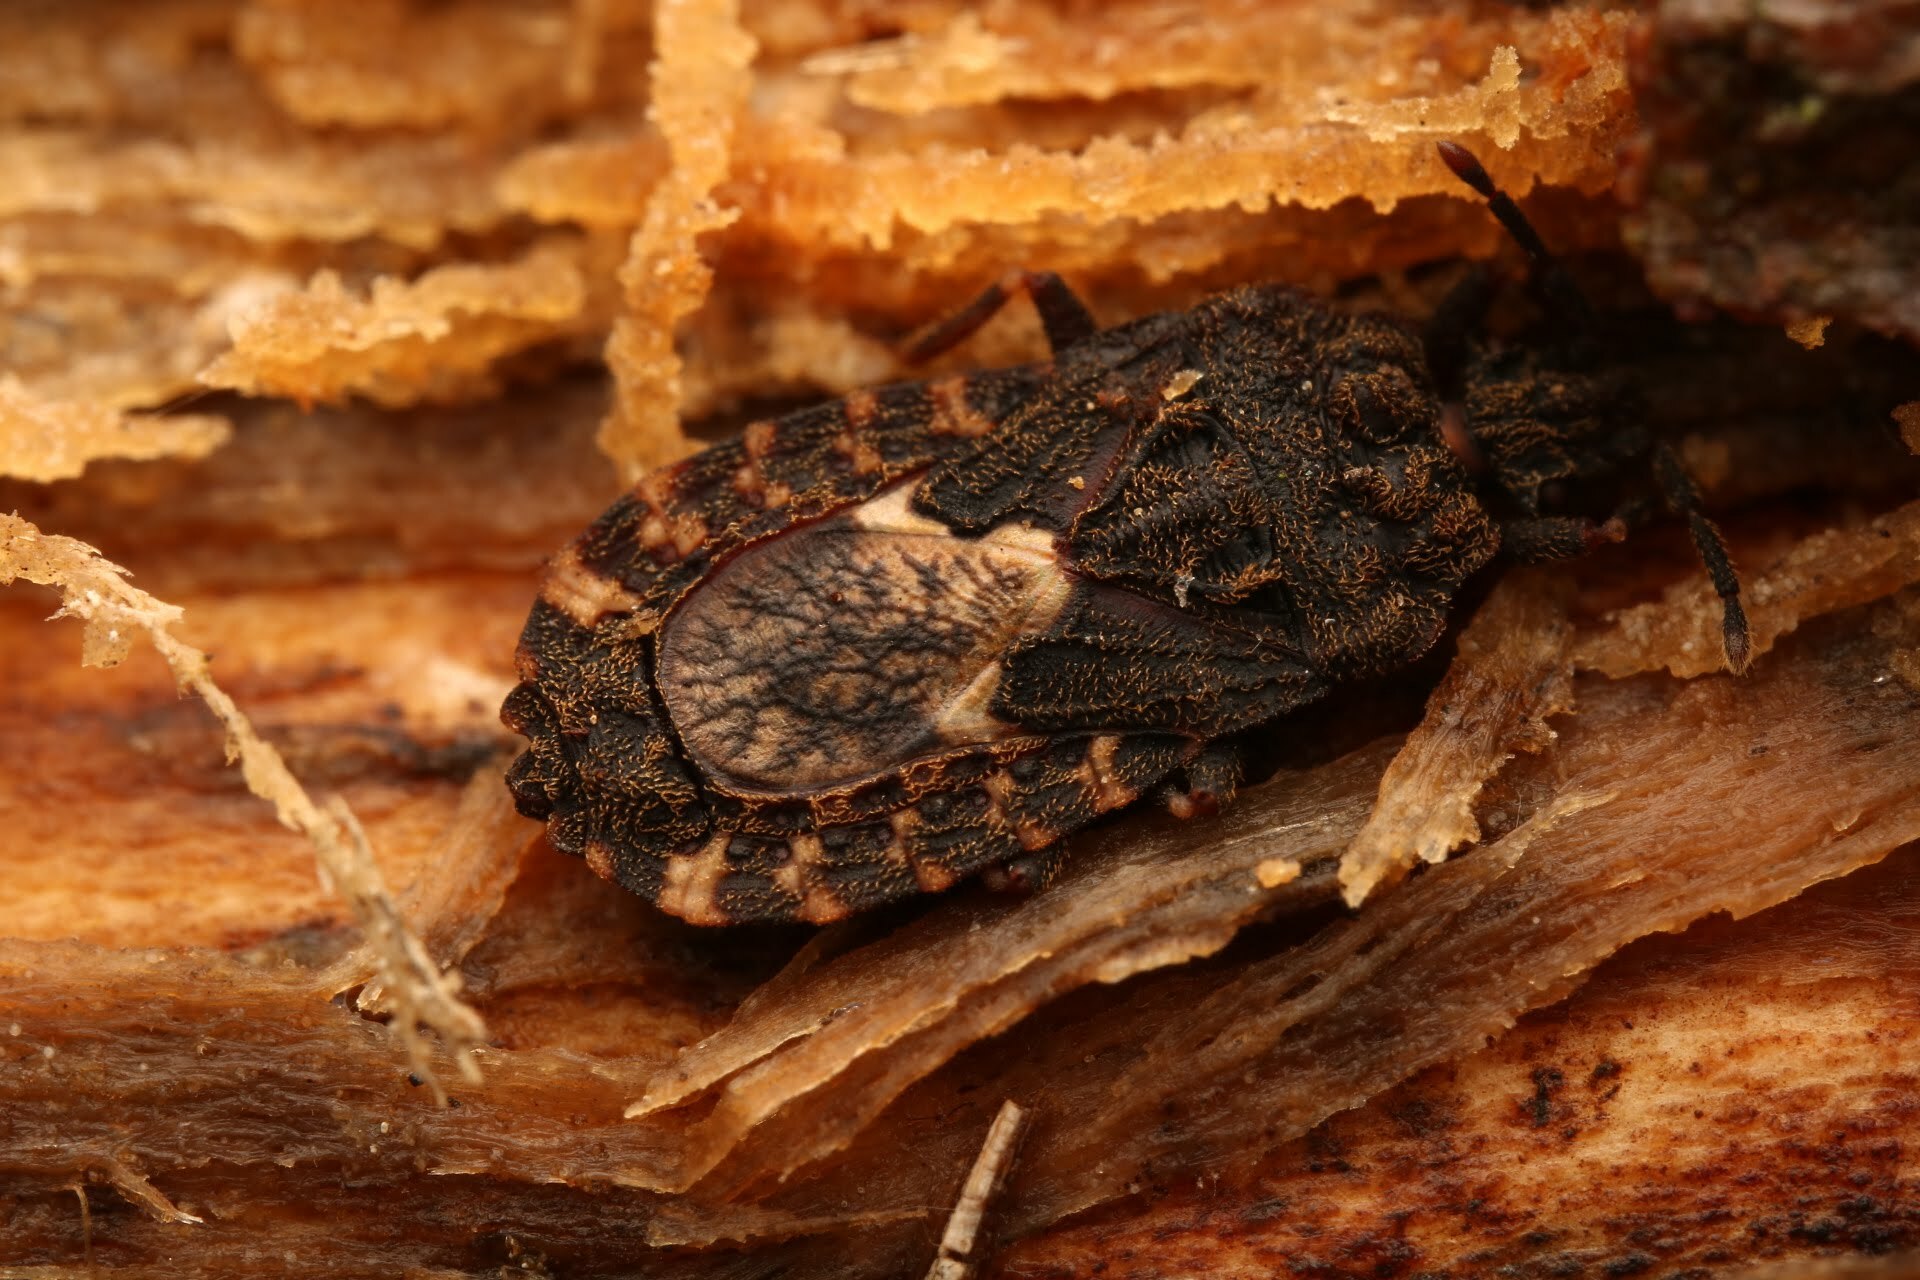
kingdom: Animalia
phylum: Arthropoda
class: Insecta
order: Hemiptera
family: Aradidae
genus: Mezira
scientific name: Mezira
